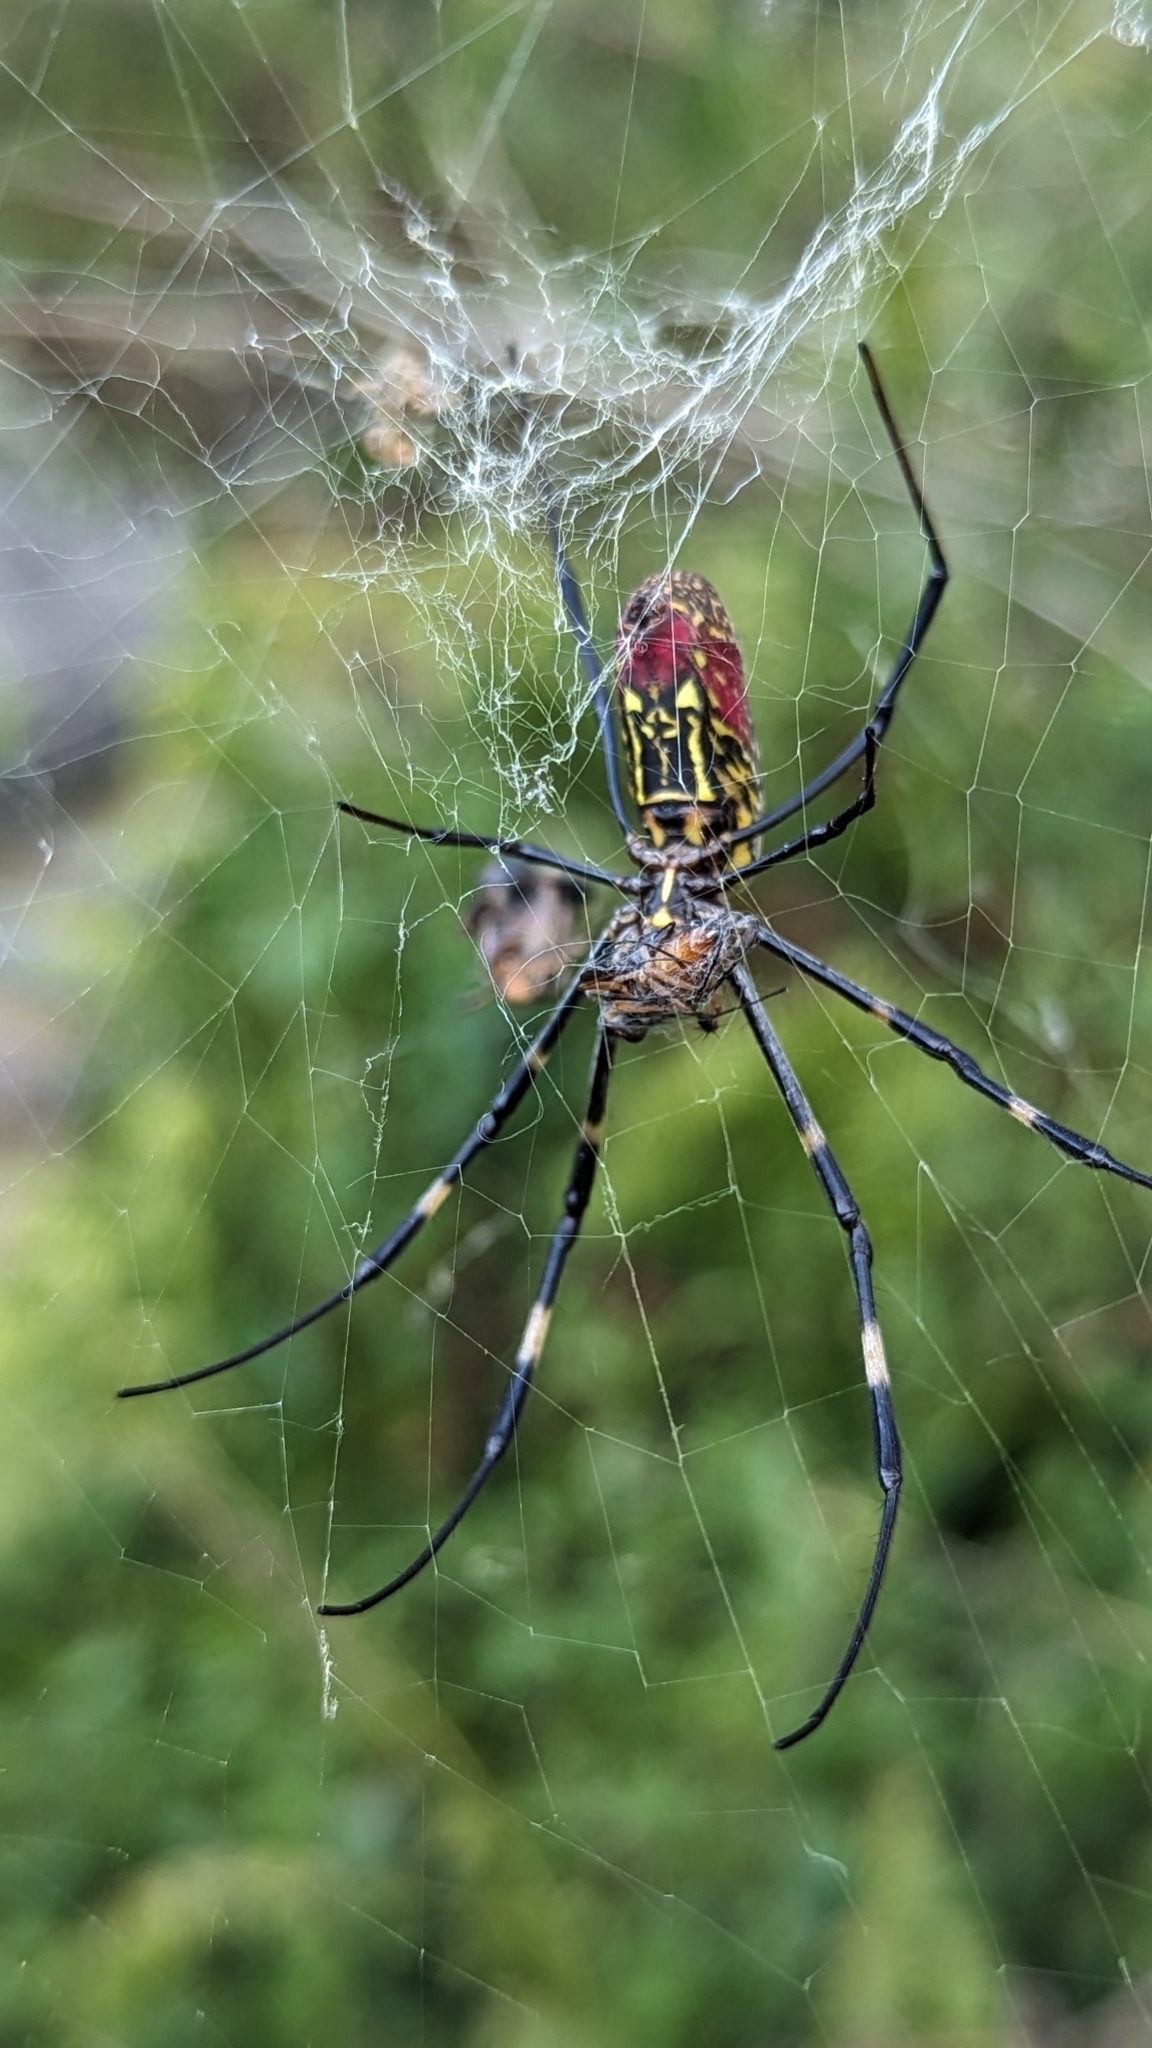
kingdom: Animalia
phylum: Arthropoda
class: Arachnida
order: Araneae
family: Araneidae
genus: Trichonephila
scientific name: Trichonephila clavata
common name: Jorō spider
